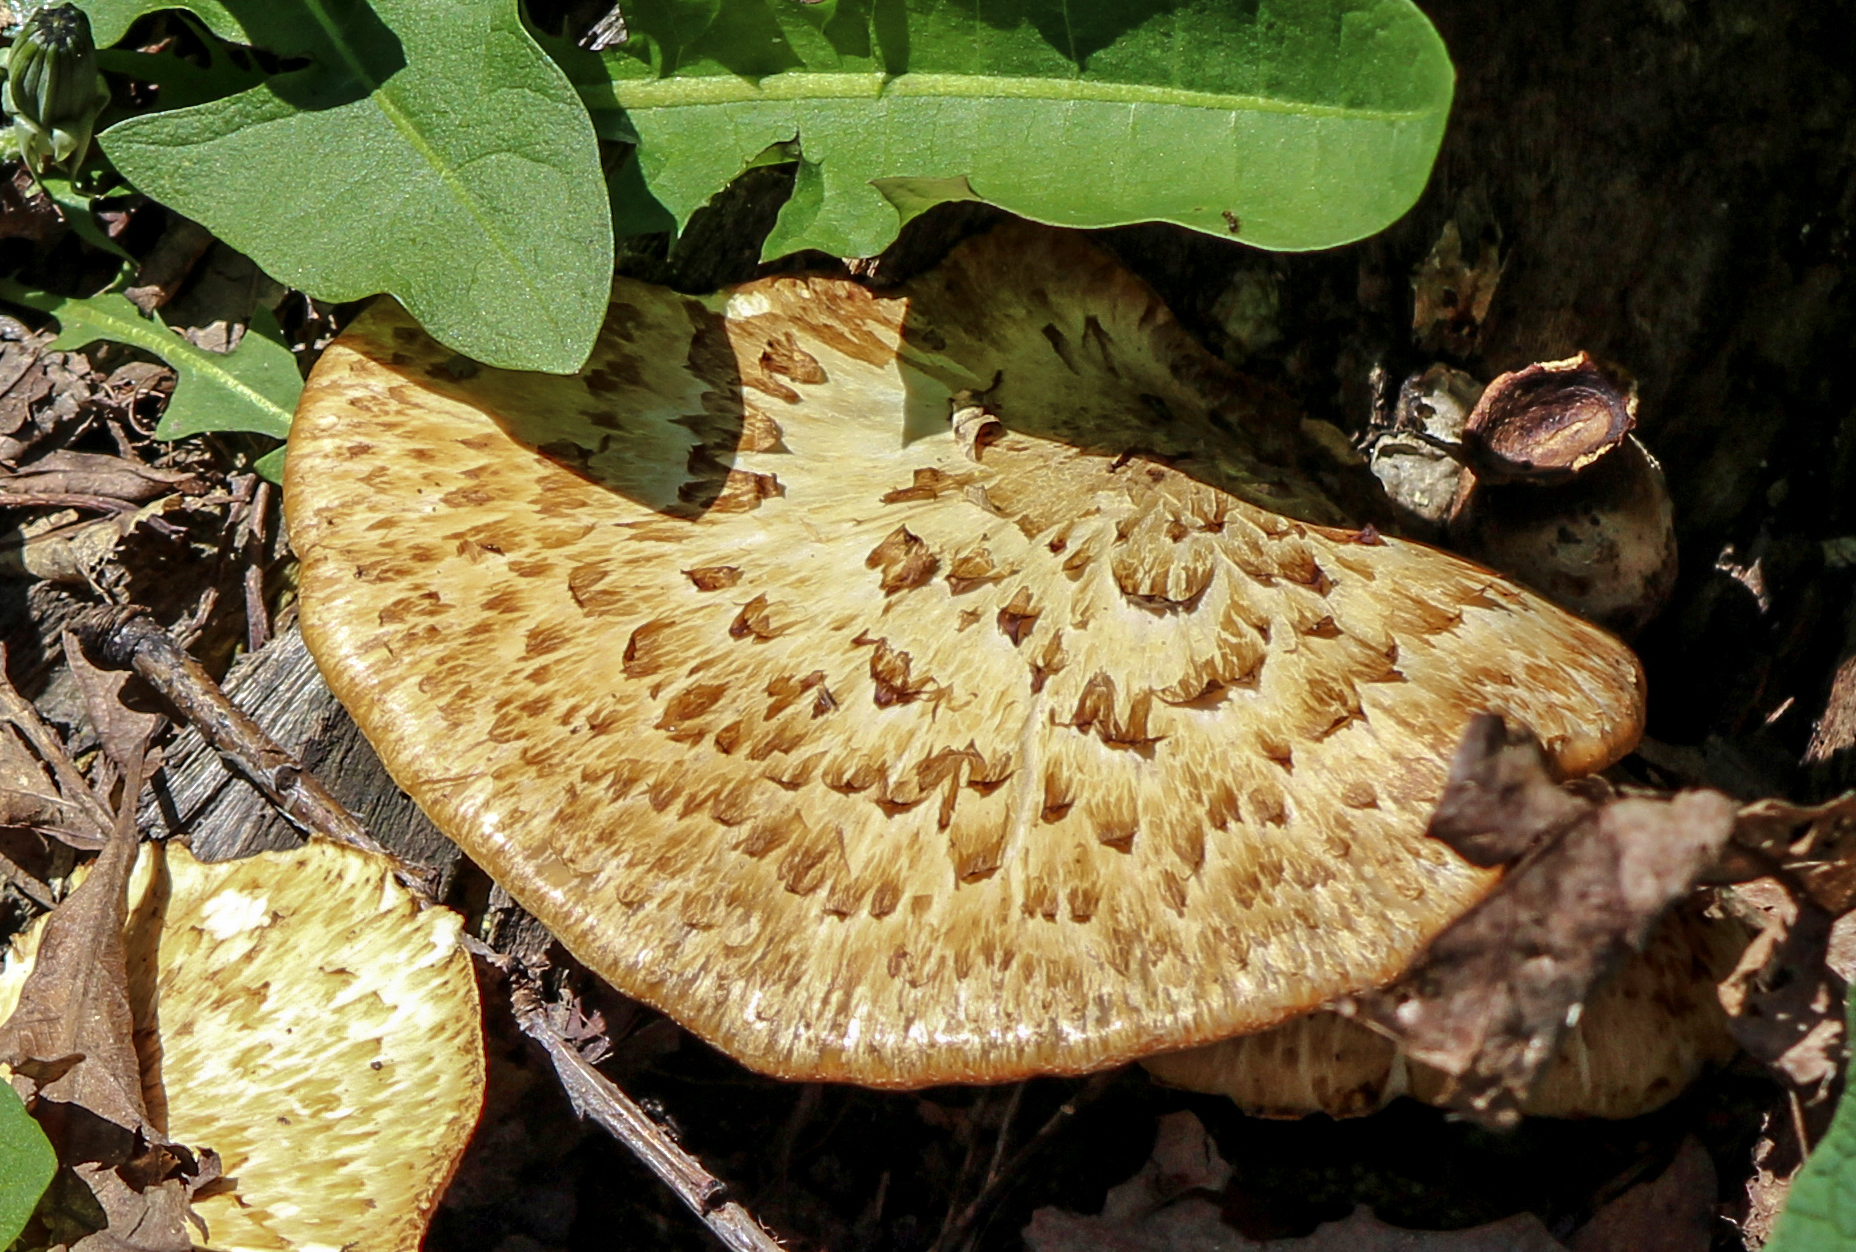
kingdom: Fungi
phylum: Basidiomycota
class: Agaricomycetes
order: Polyporales
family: Polyporaceae
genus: Cerioporus
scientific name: Cerioporus squamosus
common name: Dryad's saddle
